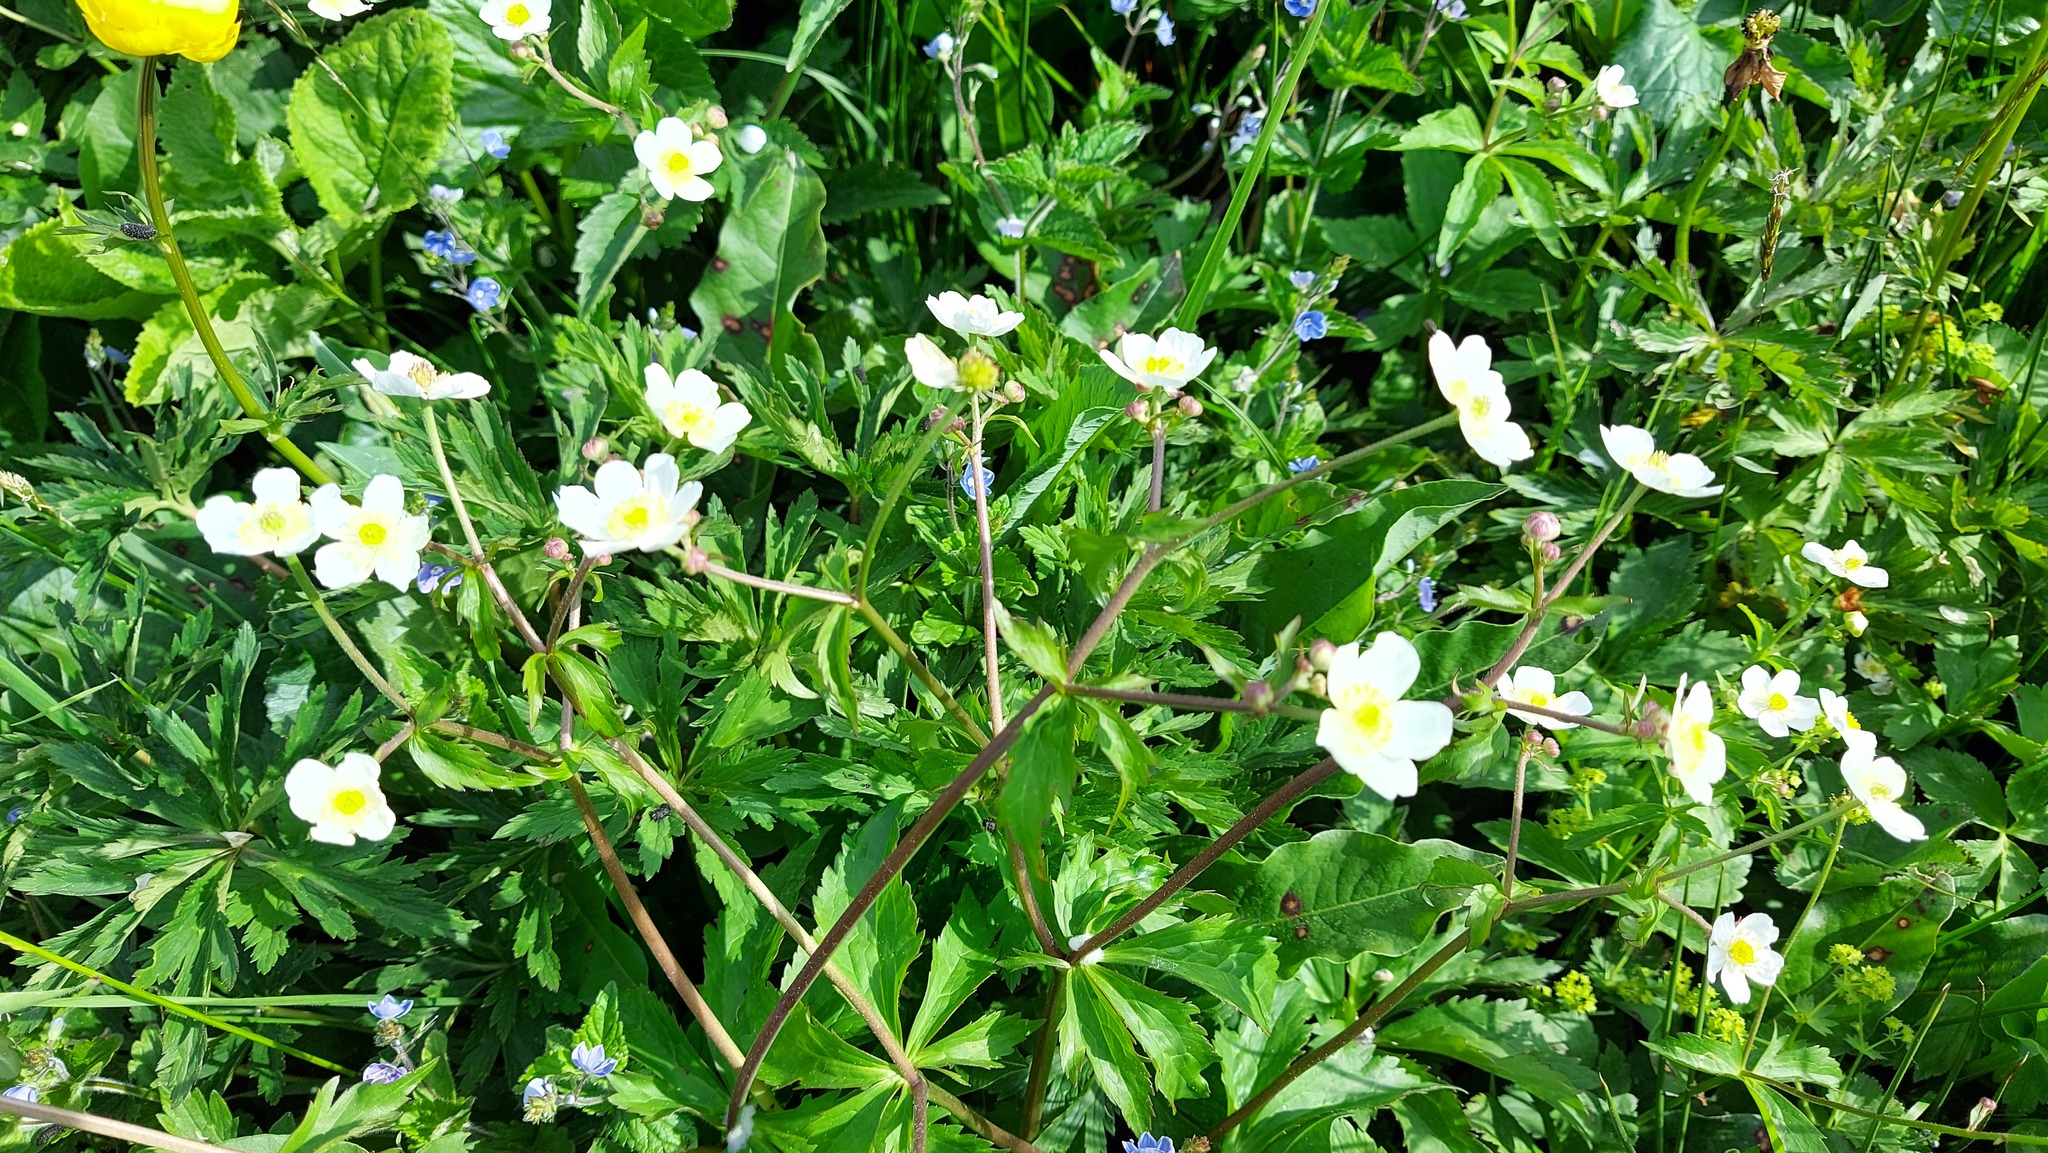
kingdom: Plantae
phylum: Tracheophyta
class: Magnoliopsida
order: Ranunculales
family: Ranunculaceae
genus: Ranunculus
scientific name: Ranunculus aconitifolius
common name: Aconite-leaved buttercup
